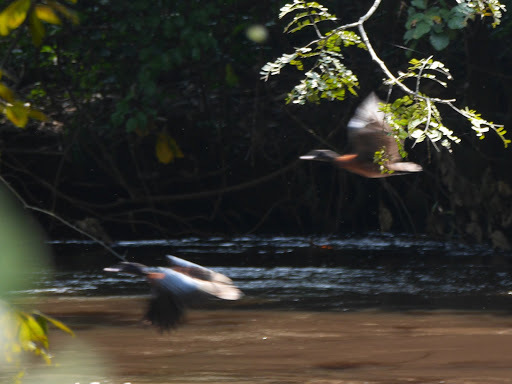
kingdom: Animalia
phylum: Chordata
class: Aves
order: Anseriformes
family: Anatidae
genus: Pteronetta
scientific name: Pteronetta hartlaubii
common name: Hartlaub's duck
